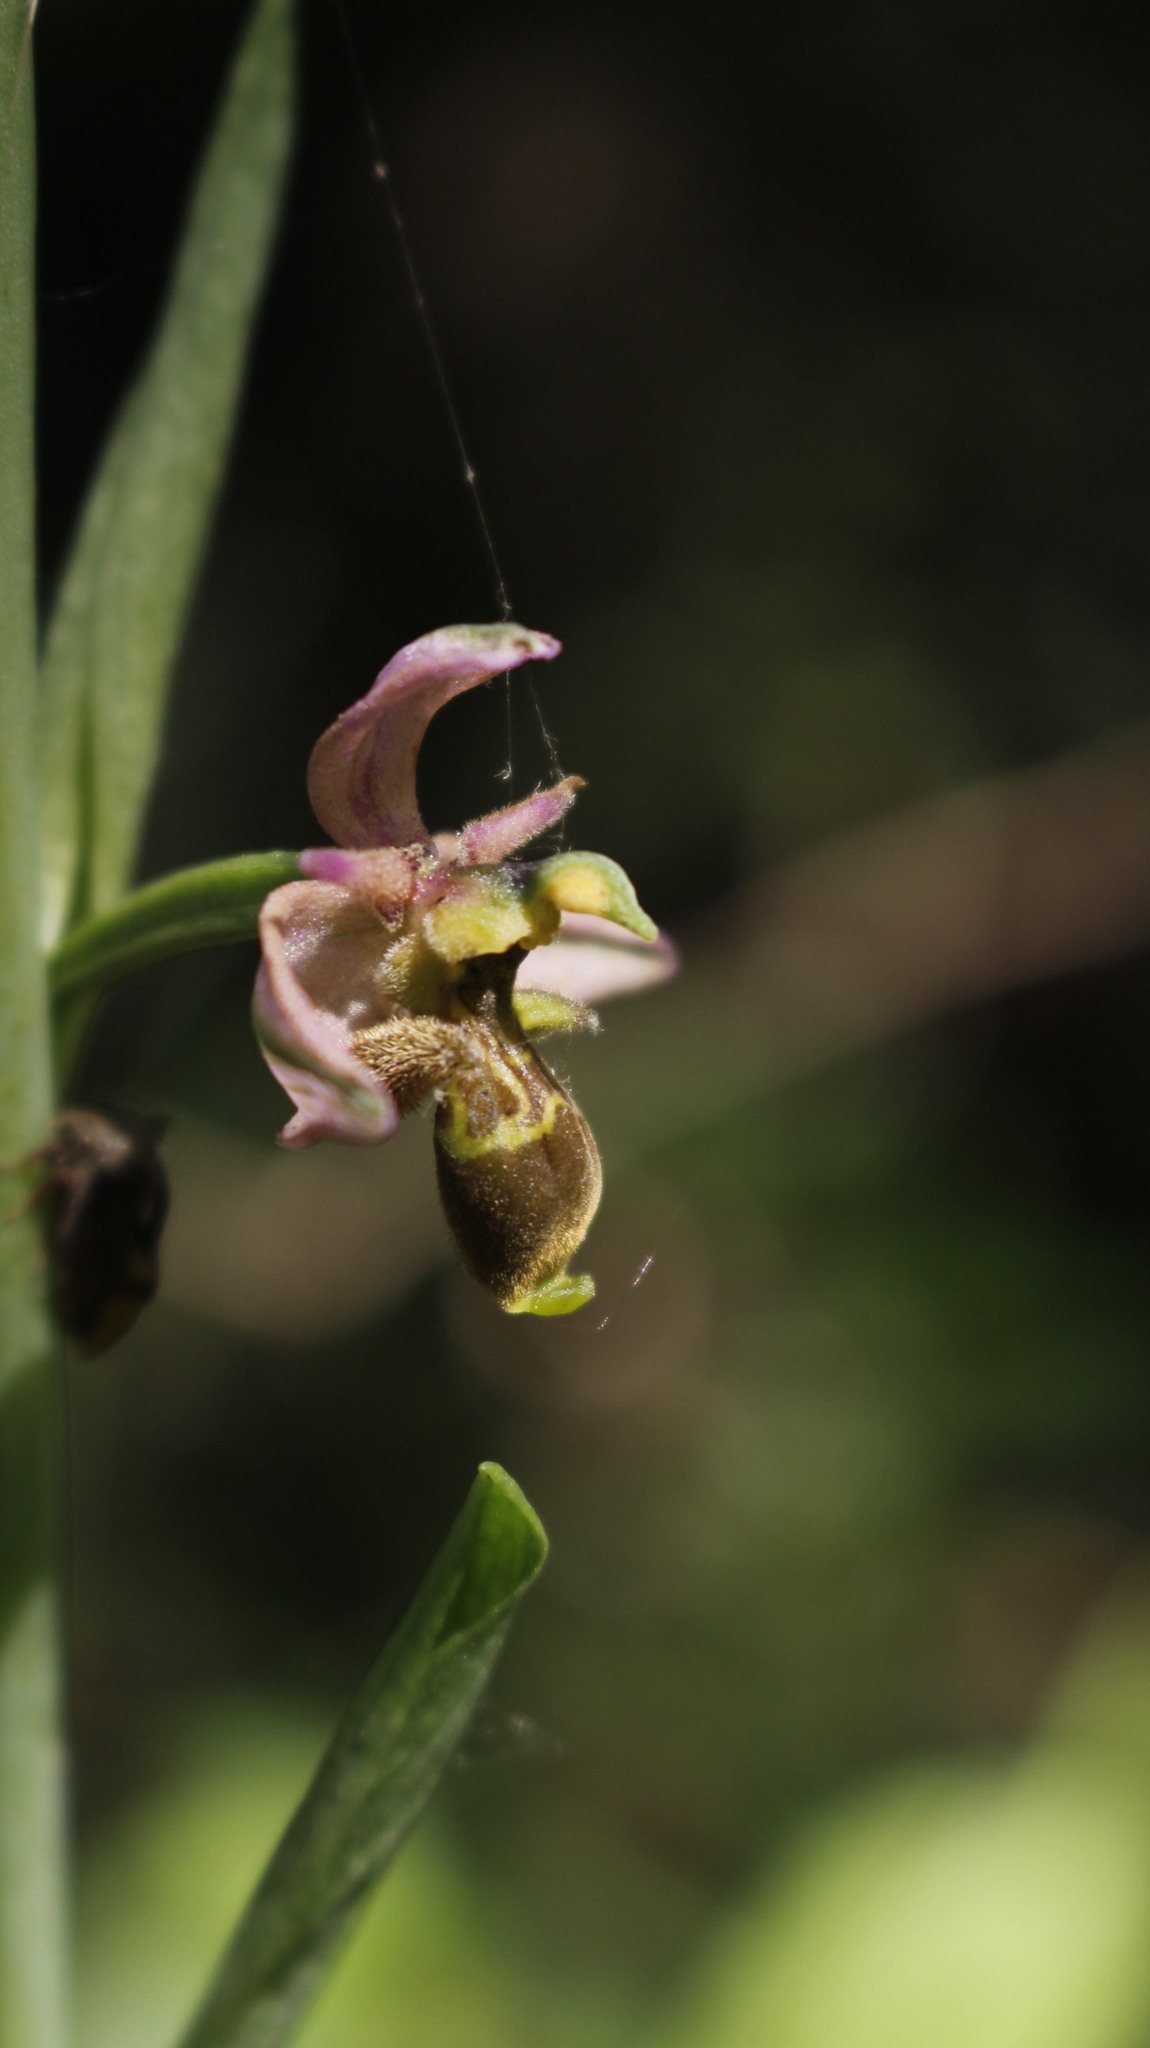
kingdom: Plantae
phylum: Tracheophyta
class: Liliopsida
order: Asparagales
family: Orchidaceae
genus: Ophrys
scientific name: Ophrys scolopax
